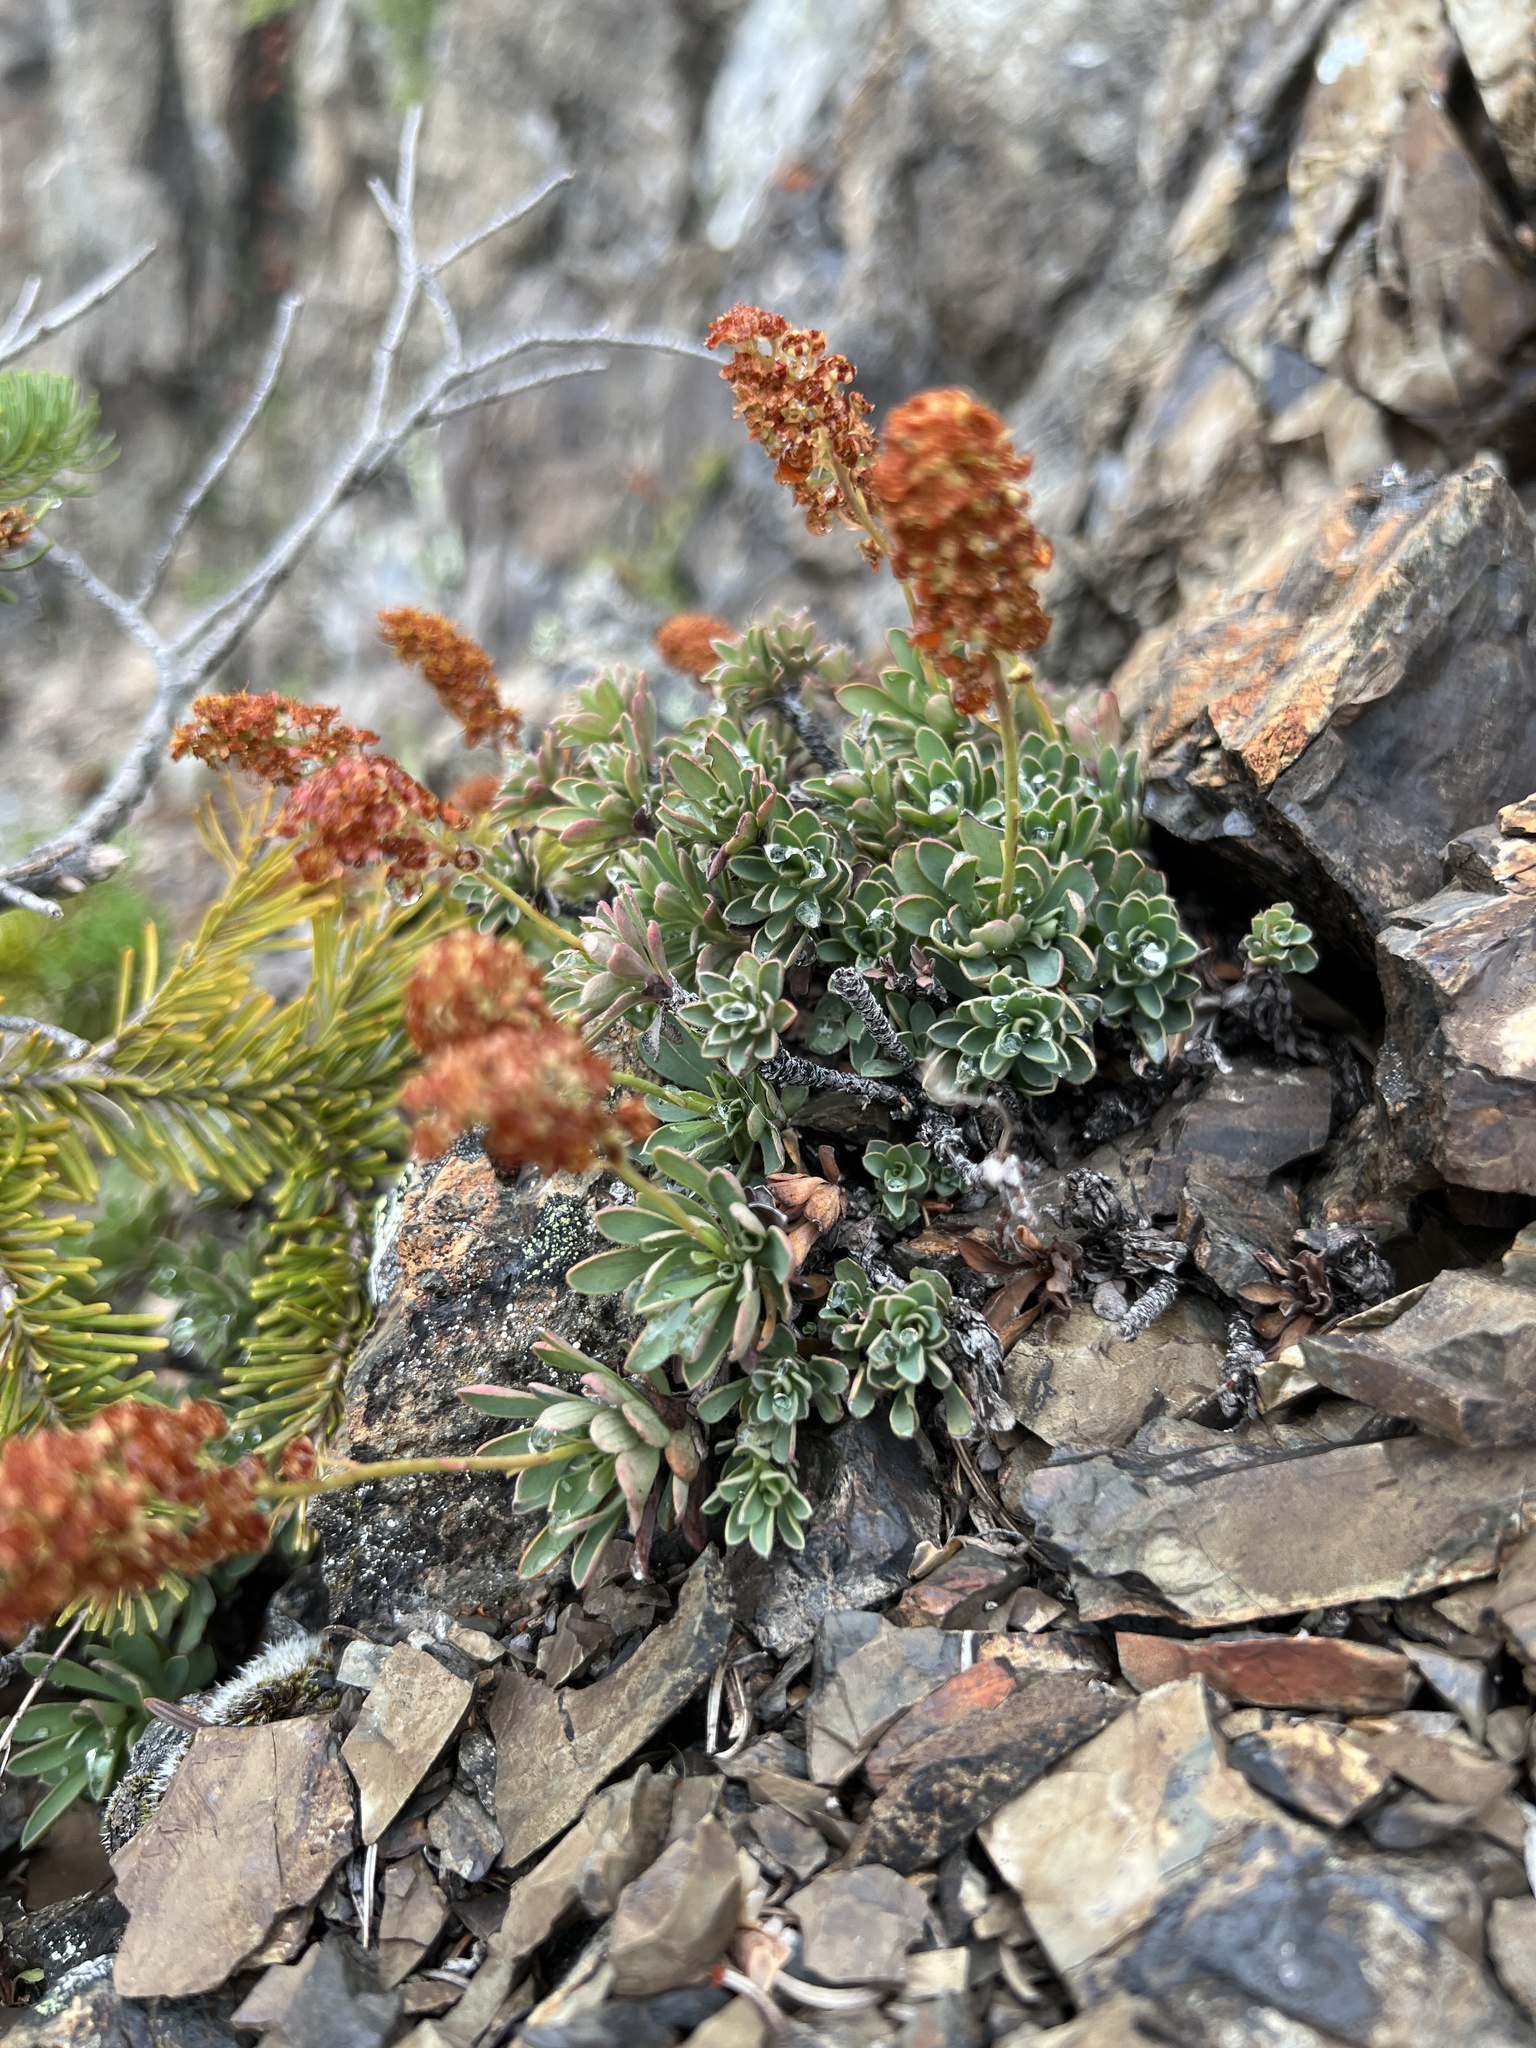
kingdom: Plantae
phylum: Tracheophyta
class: Magnoliopsida
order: Rosales
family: Rosaceae
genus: Petrophytum
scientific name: Petrophytum hendersonii
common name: Olympic mountain rockmat
